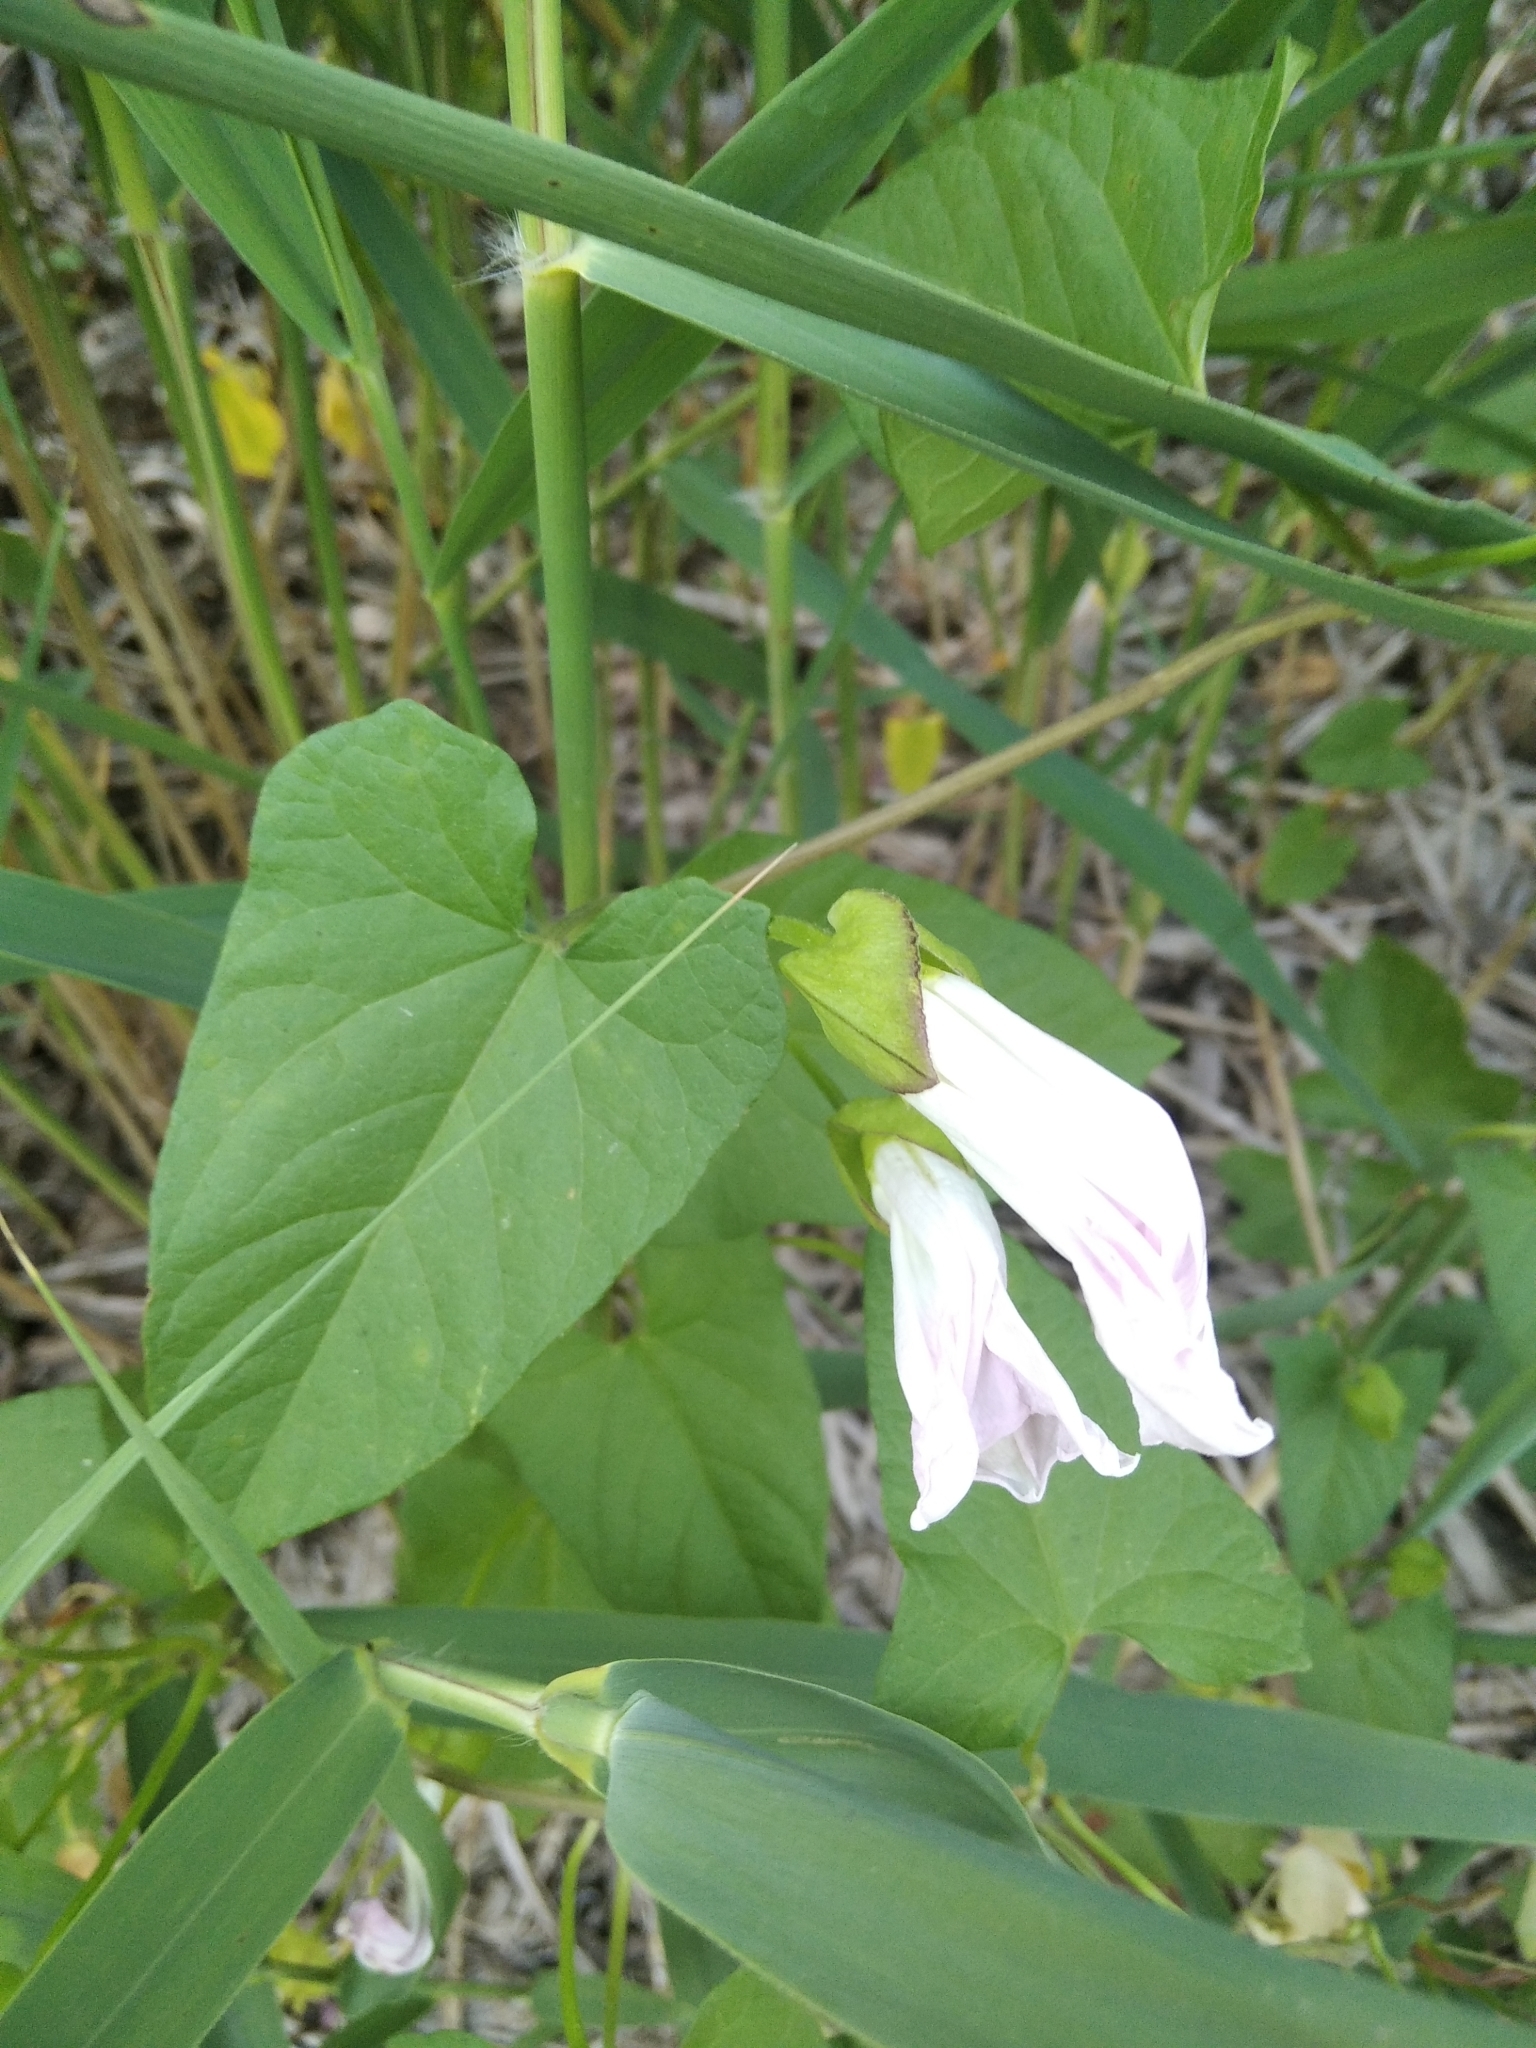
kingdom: Plantae
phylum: Tracheophyta
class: Magnoliopsida
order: Solanales
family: Convolvulaceae
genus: Calystegia
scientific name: Calystegia sepium
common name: Hedge bindweed
